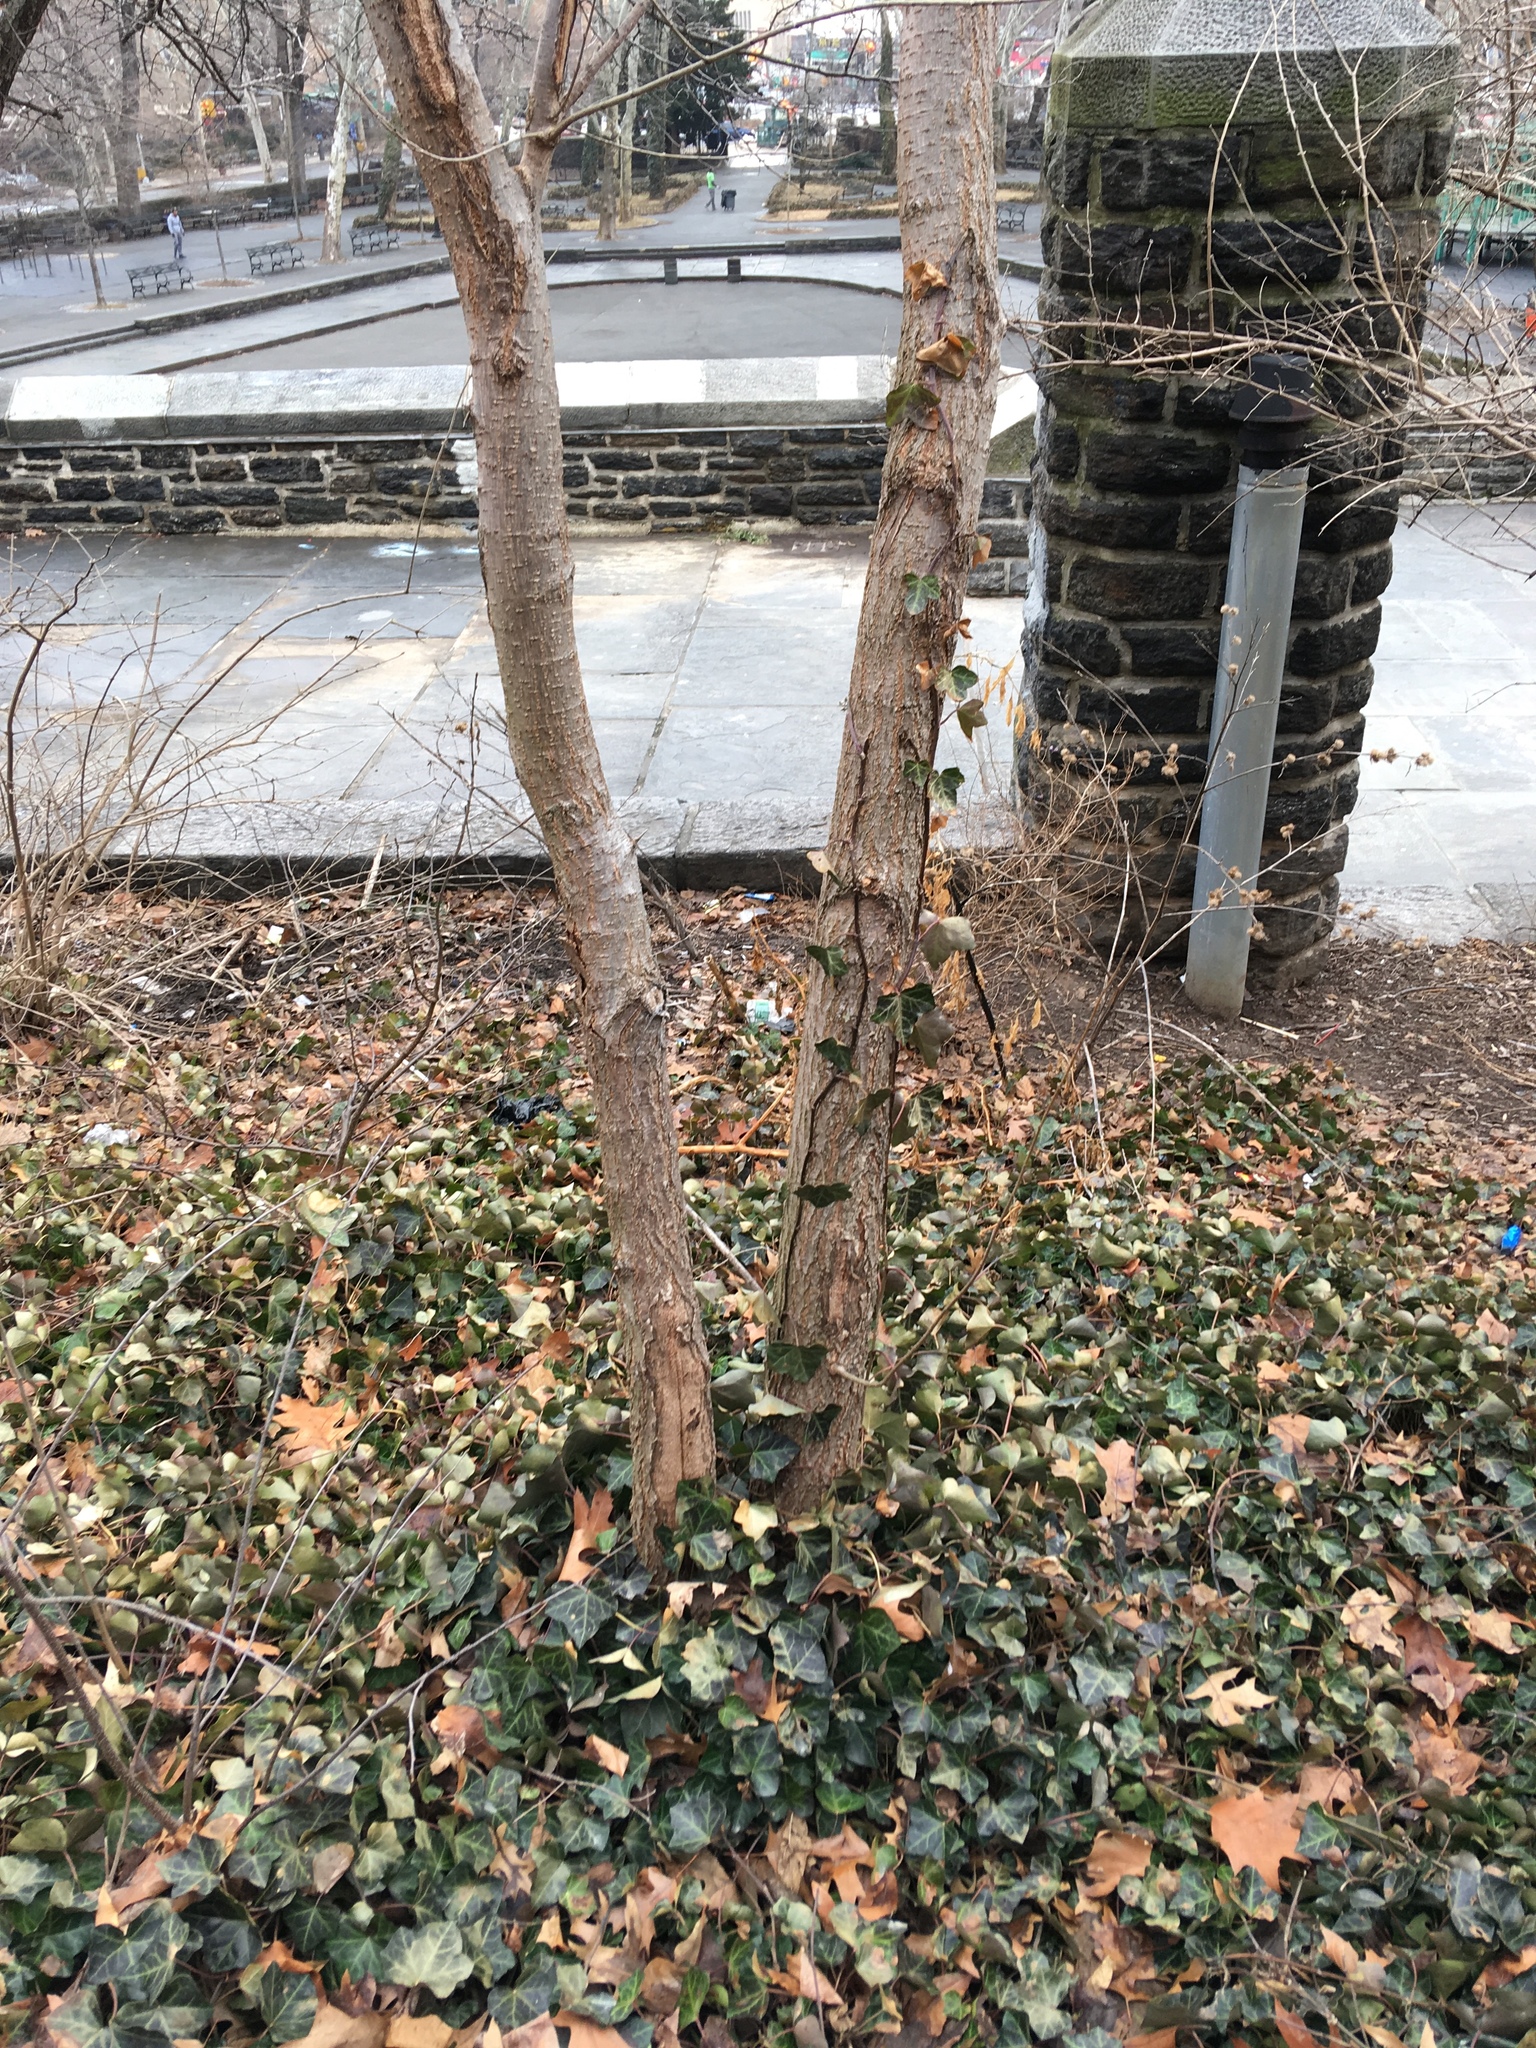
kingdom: Plantae
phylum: Tracheophyta
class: Magnoliopsida
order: Apiales
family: Araliaceae
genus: Hedera
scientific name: Hedera helix
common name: Ivy
